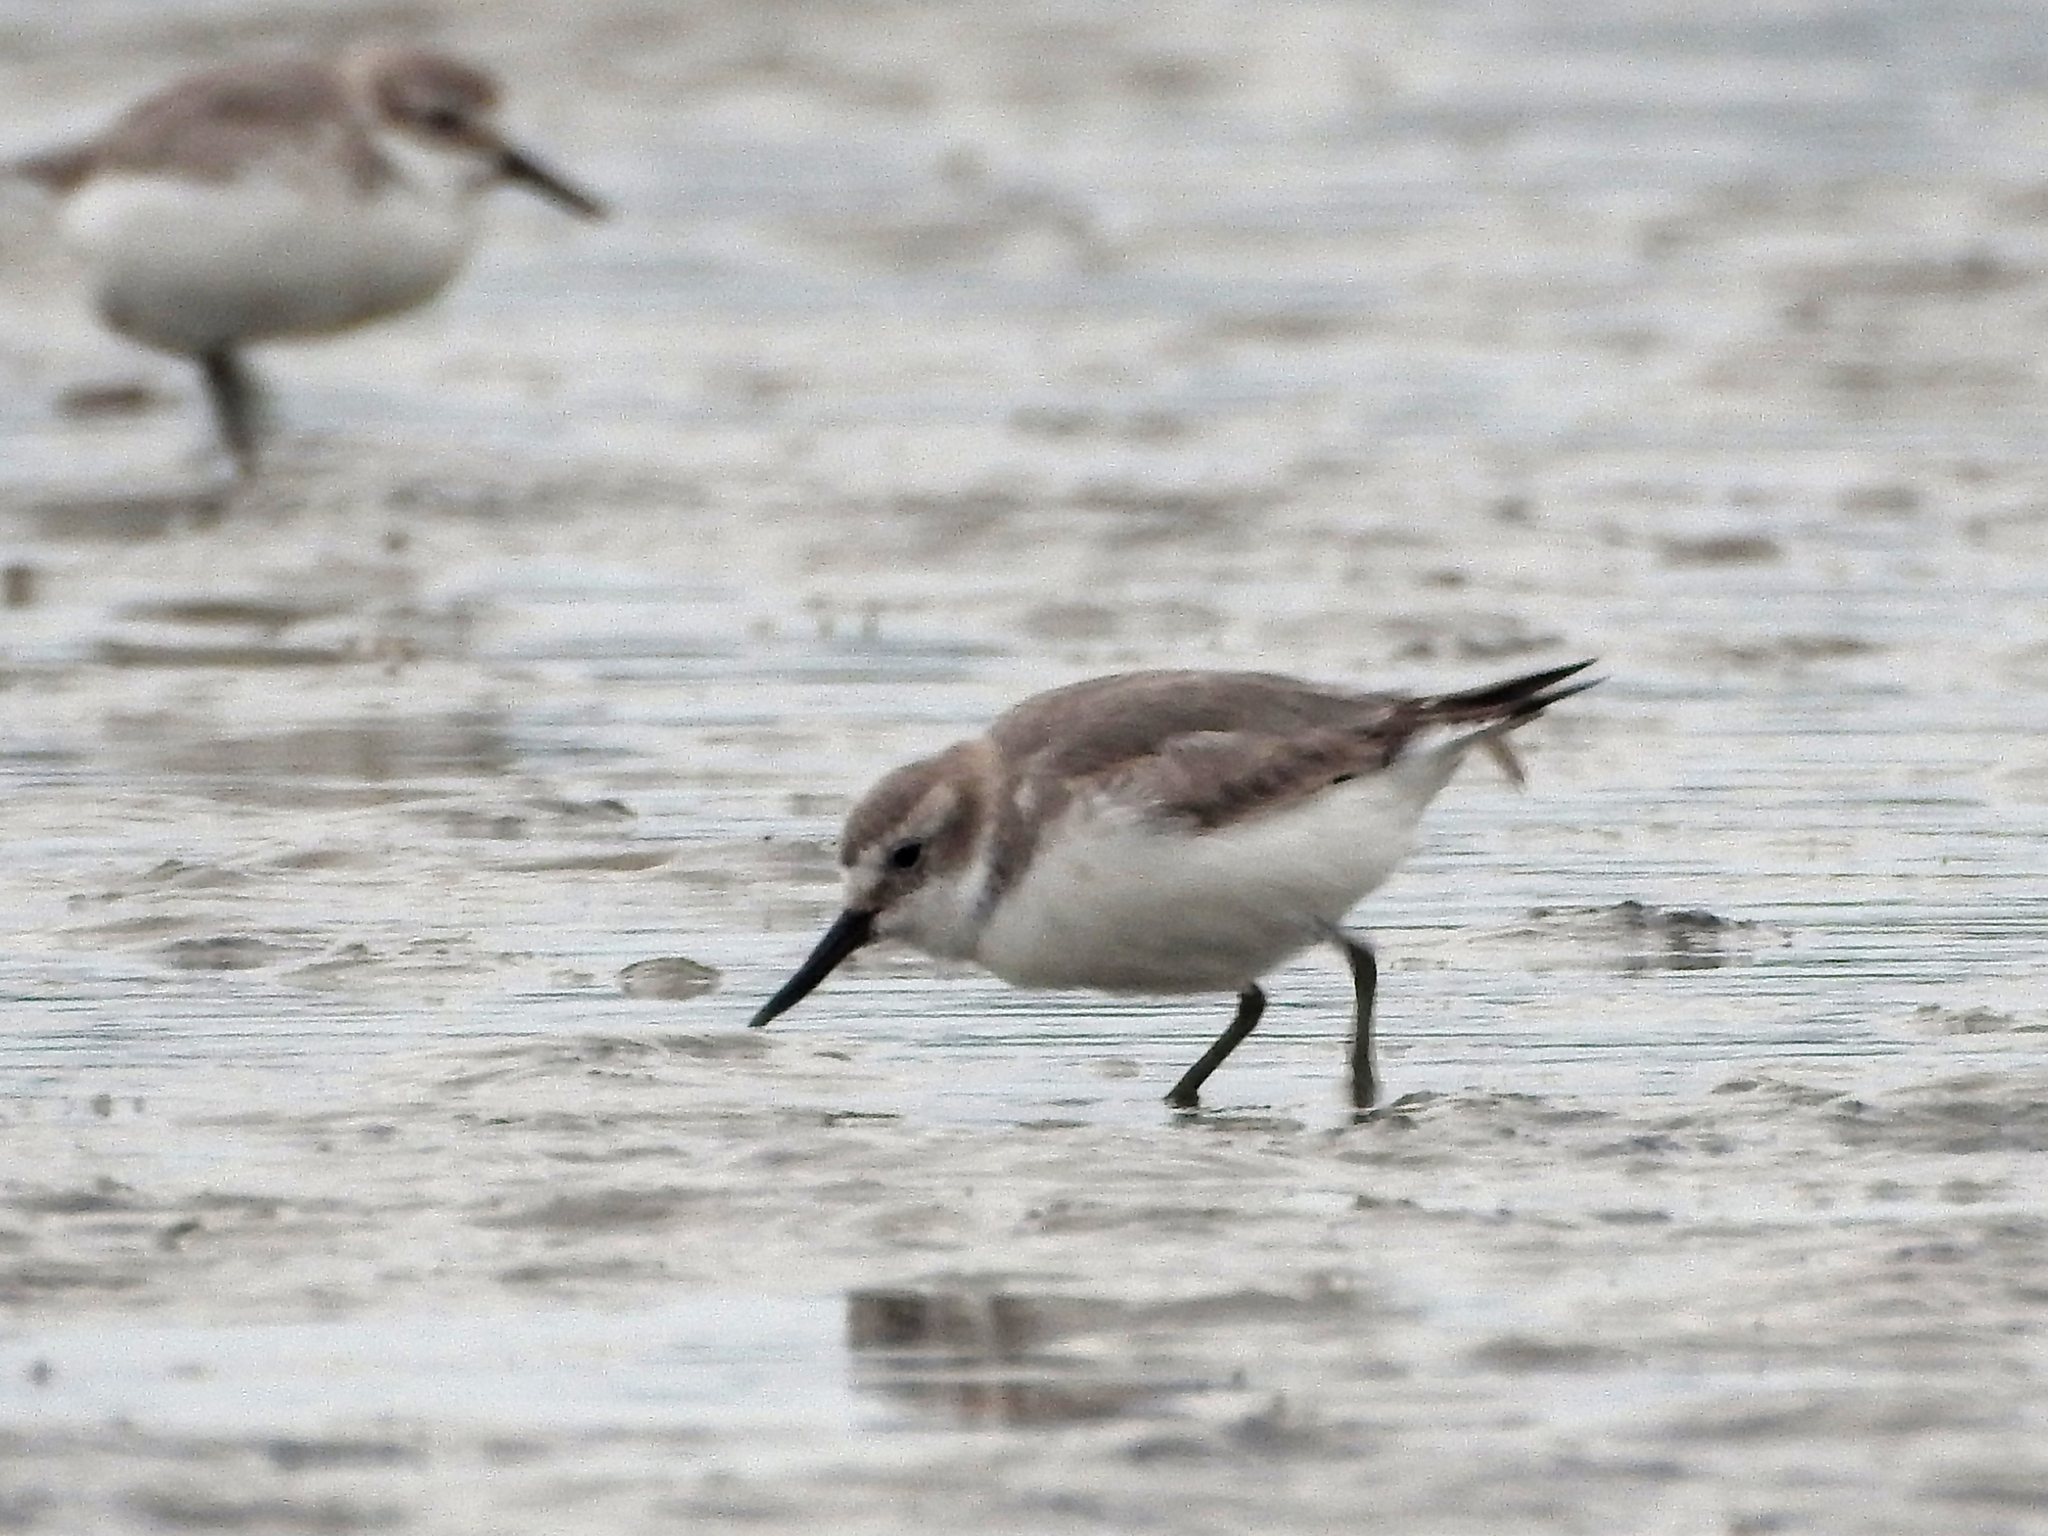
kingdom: Animalia
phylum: Chordata
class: Aves
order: Charadriiformes
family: Charadriidae
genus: Anarhynchus
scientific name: Anarhynchus frontalis
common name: Wrybill
